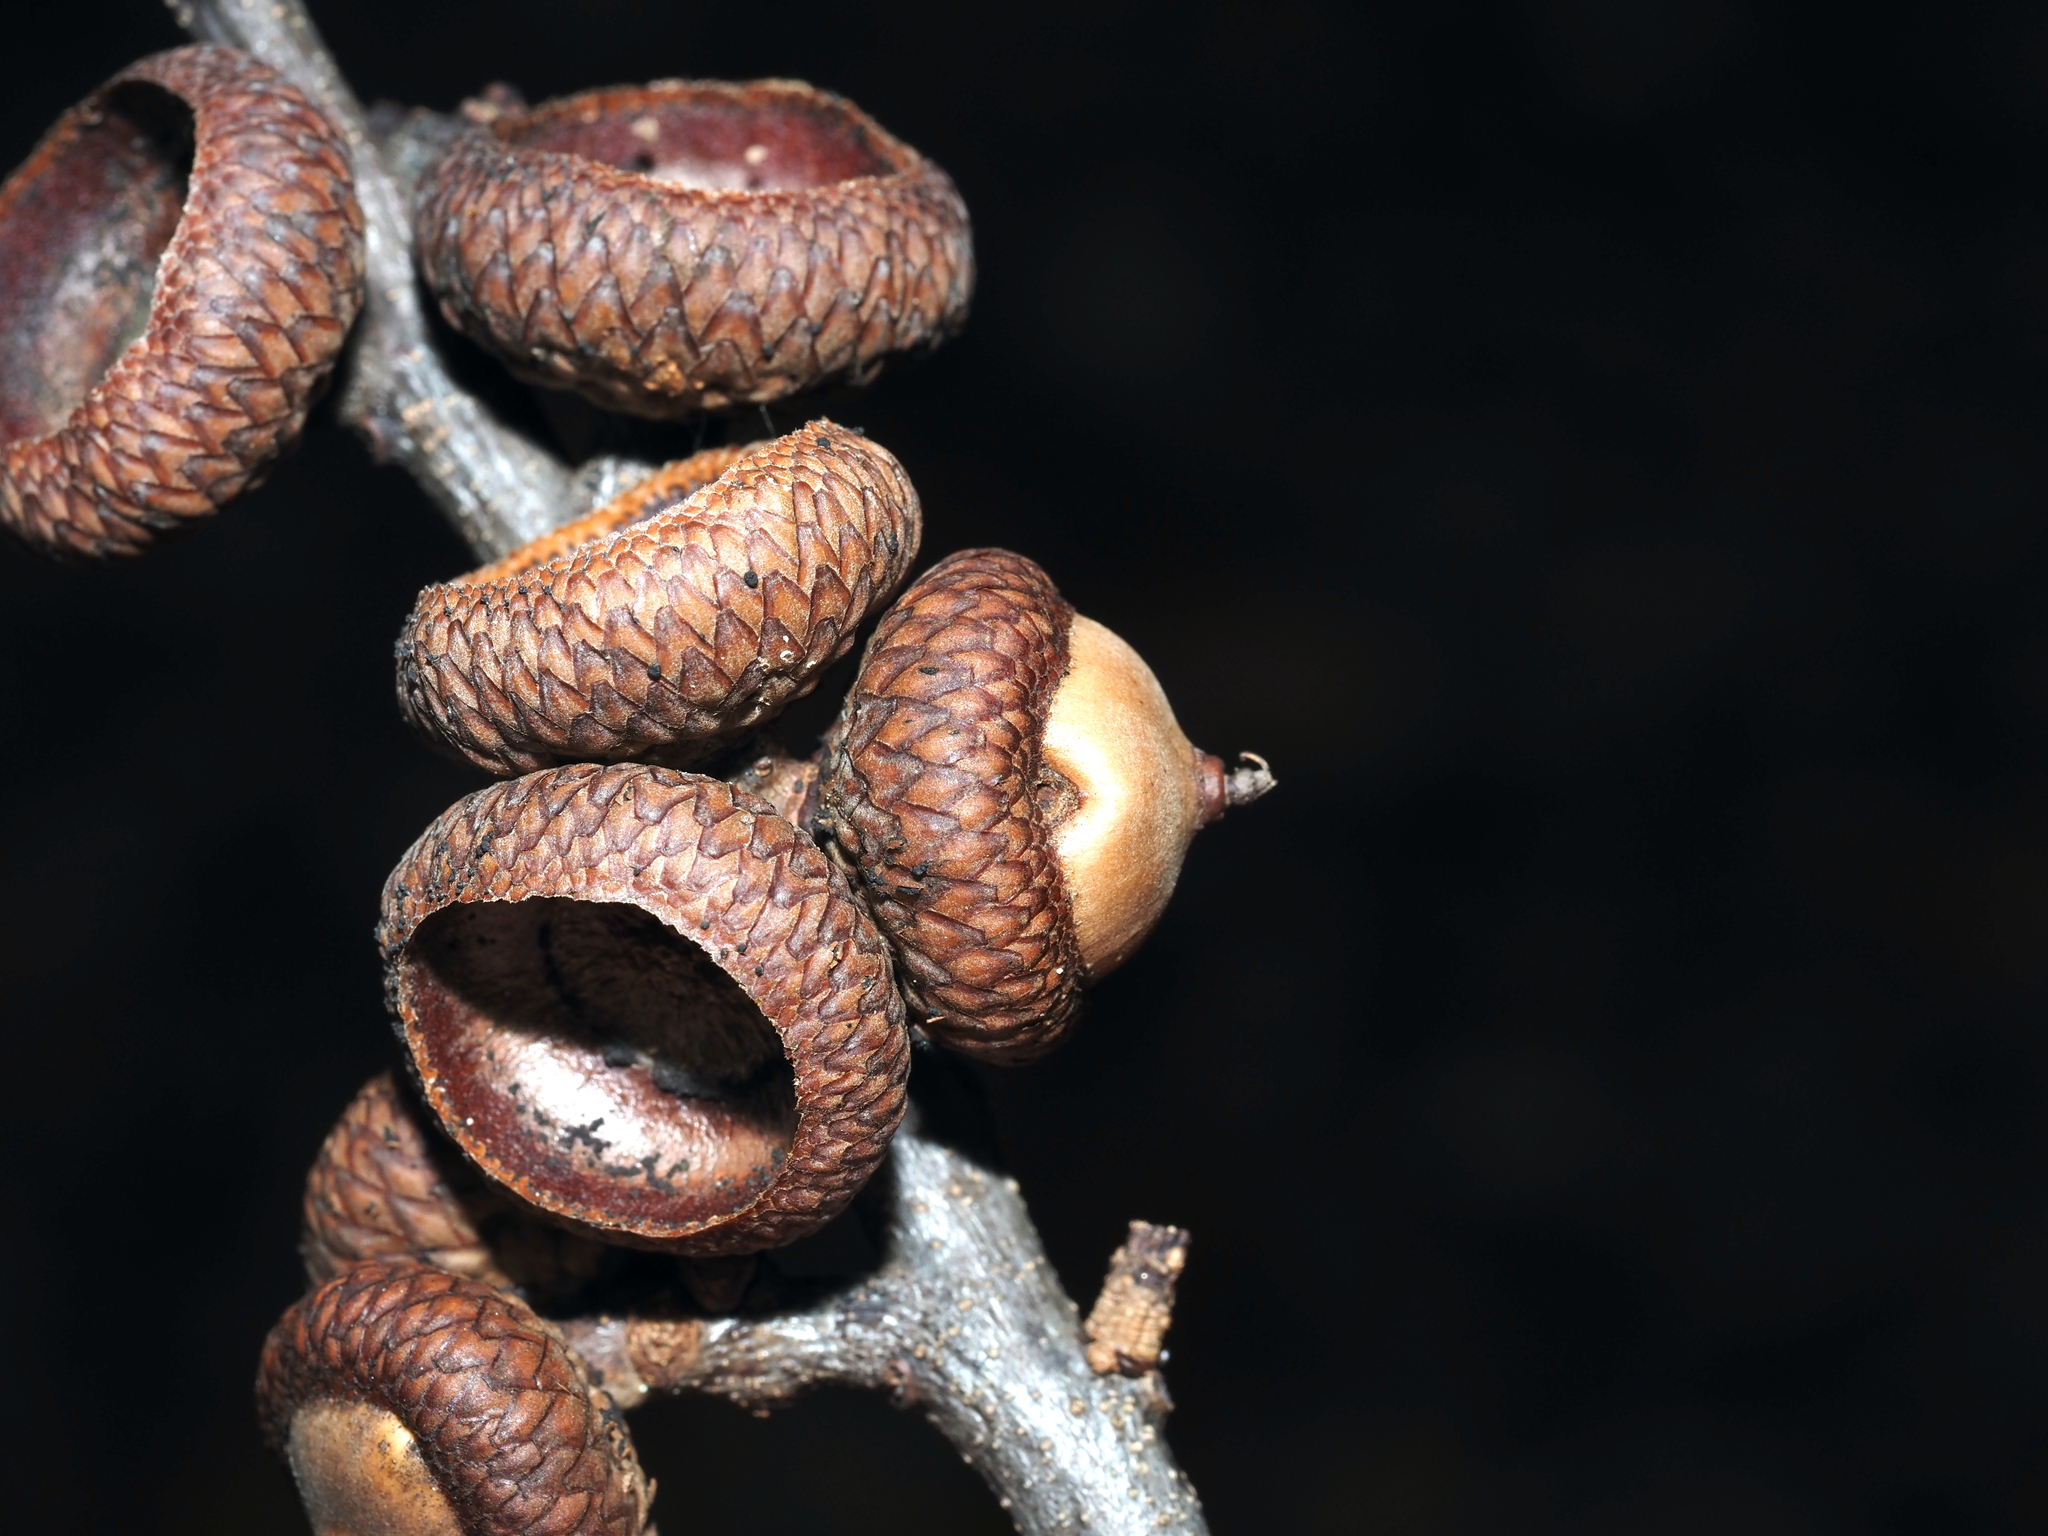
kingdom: Animalia
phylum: Arthropoda
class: Insecta
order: Hymenoptera
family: Cynipidae
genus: Callirhytis
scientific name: Callirhytis
